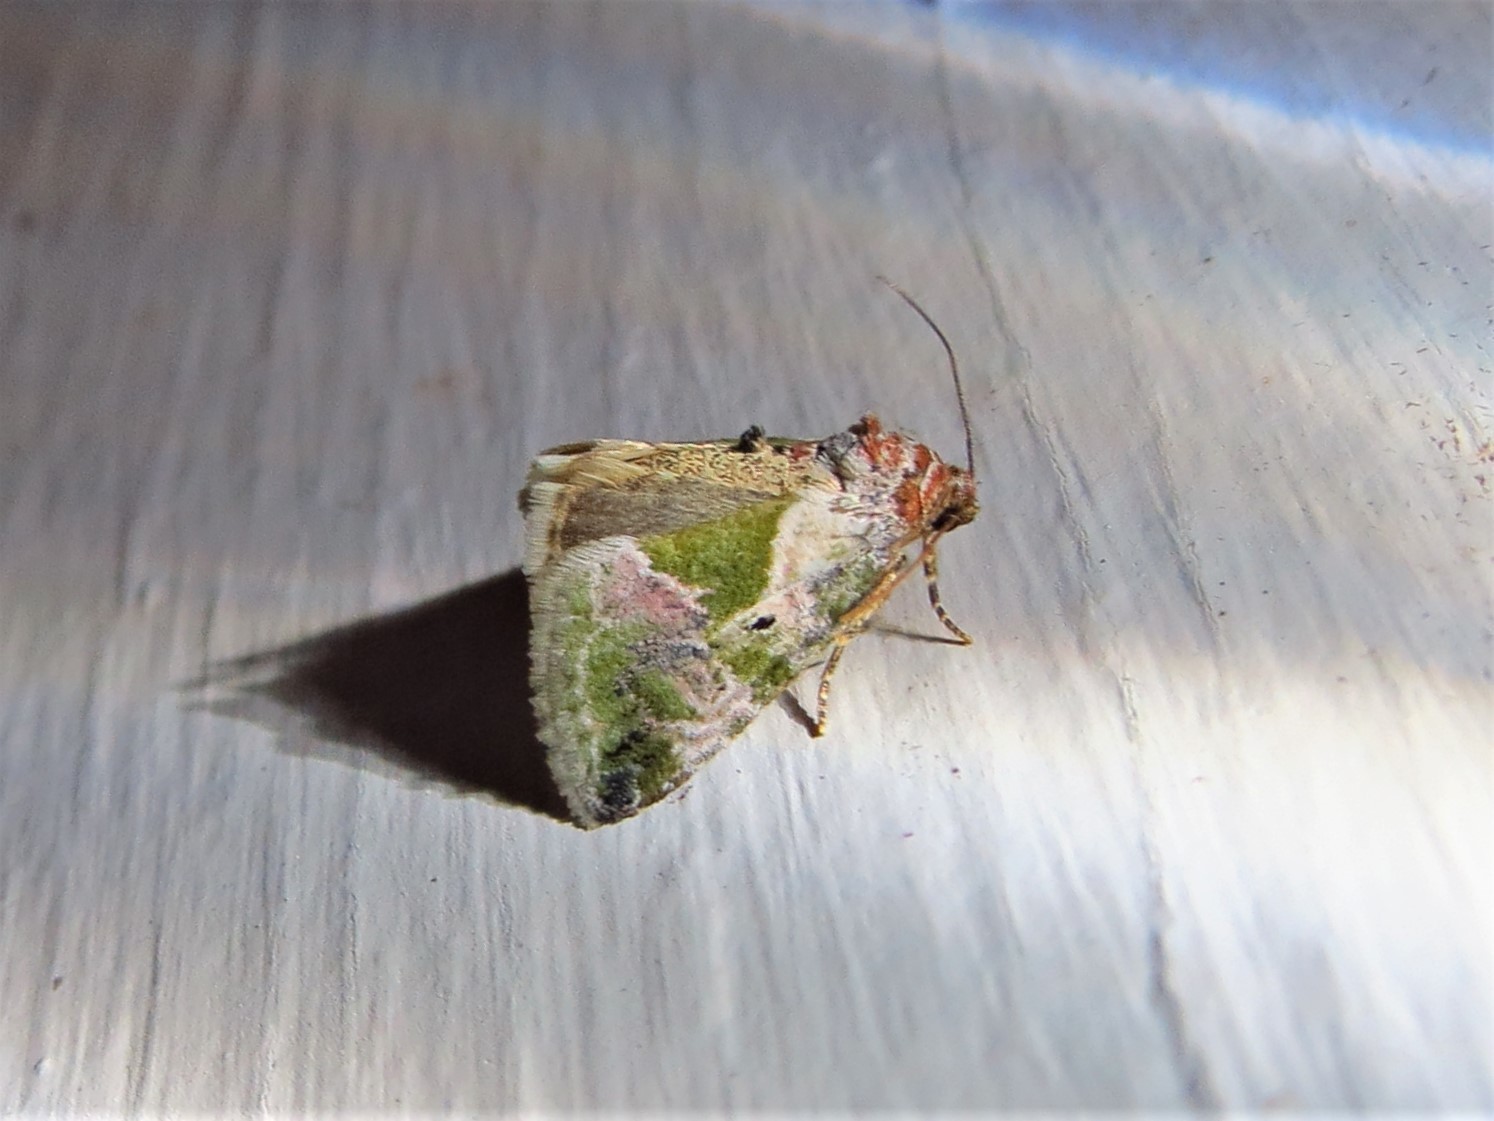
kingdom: Animalia
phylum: Arthropoda
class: Insecta
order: Lepidoptera
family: Noctuidae
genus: Maliattha
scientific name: Maliattha synochitis
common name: Black-dotted glyph
